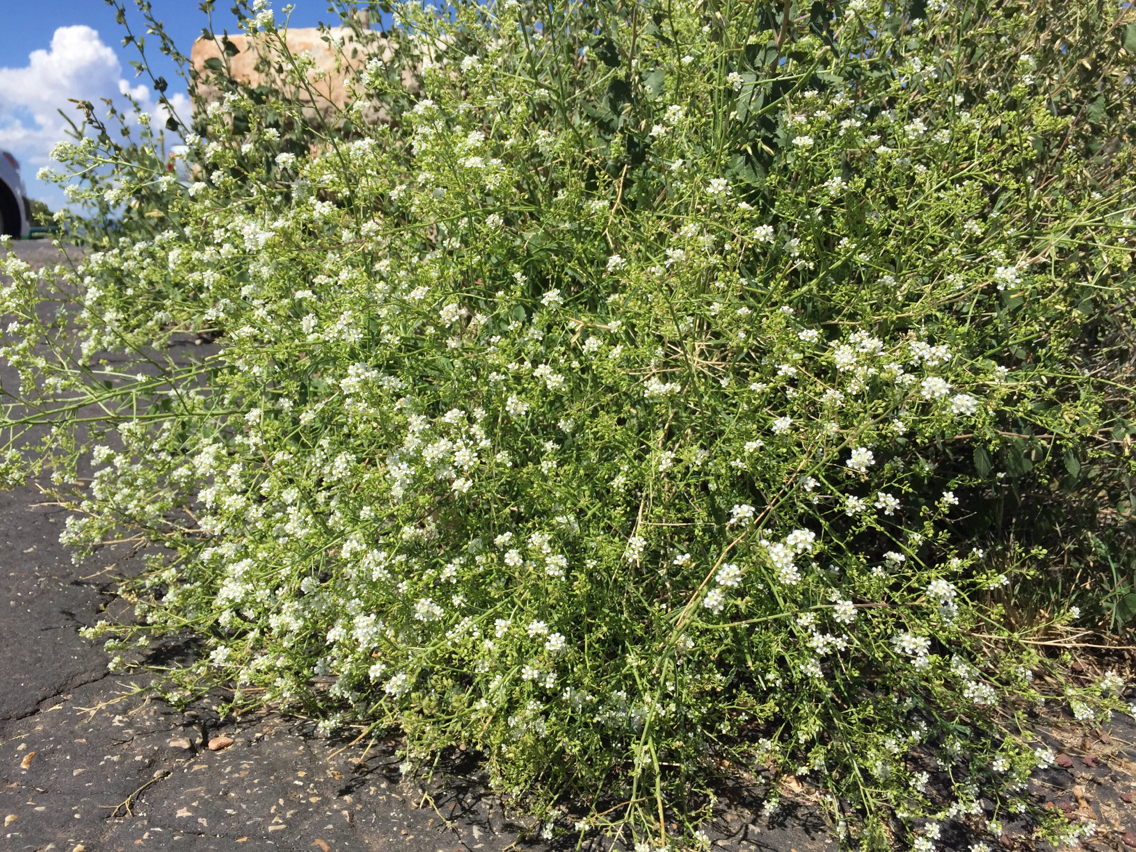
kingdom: Plantae
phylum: Tracheophyta
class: Magnoliopsida
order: Brassicales
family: Brassicaceae
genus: Lepidium
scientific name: Lepidium fremontii
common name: Fremont's pepperwort
